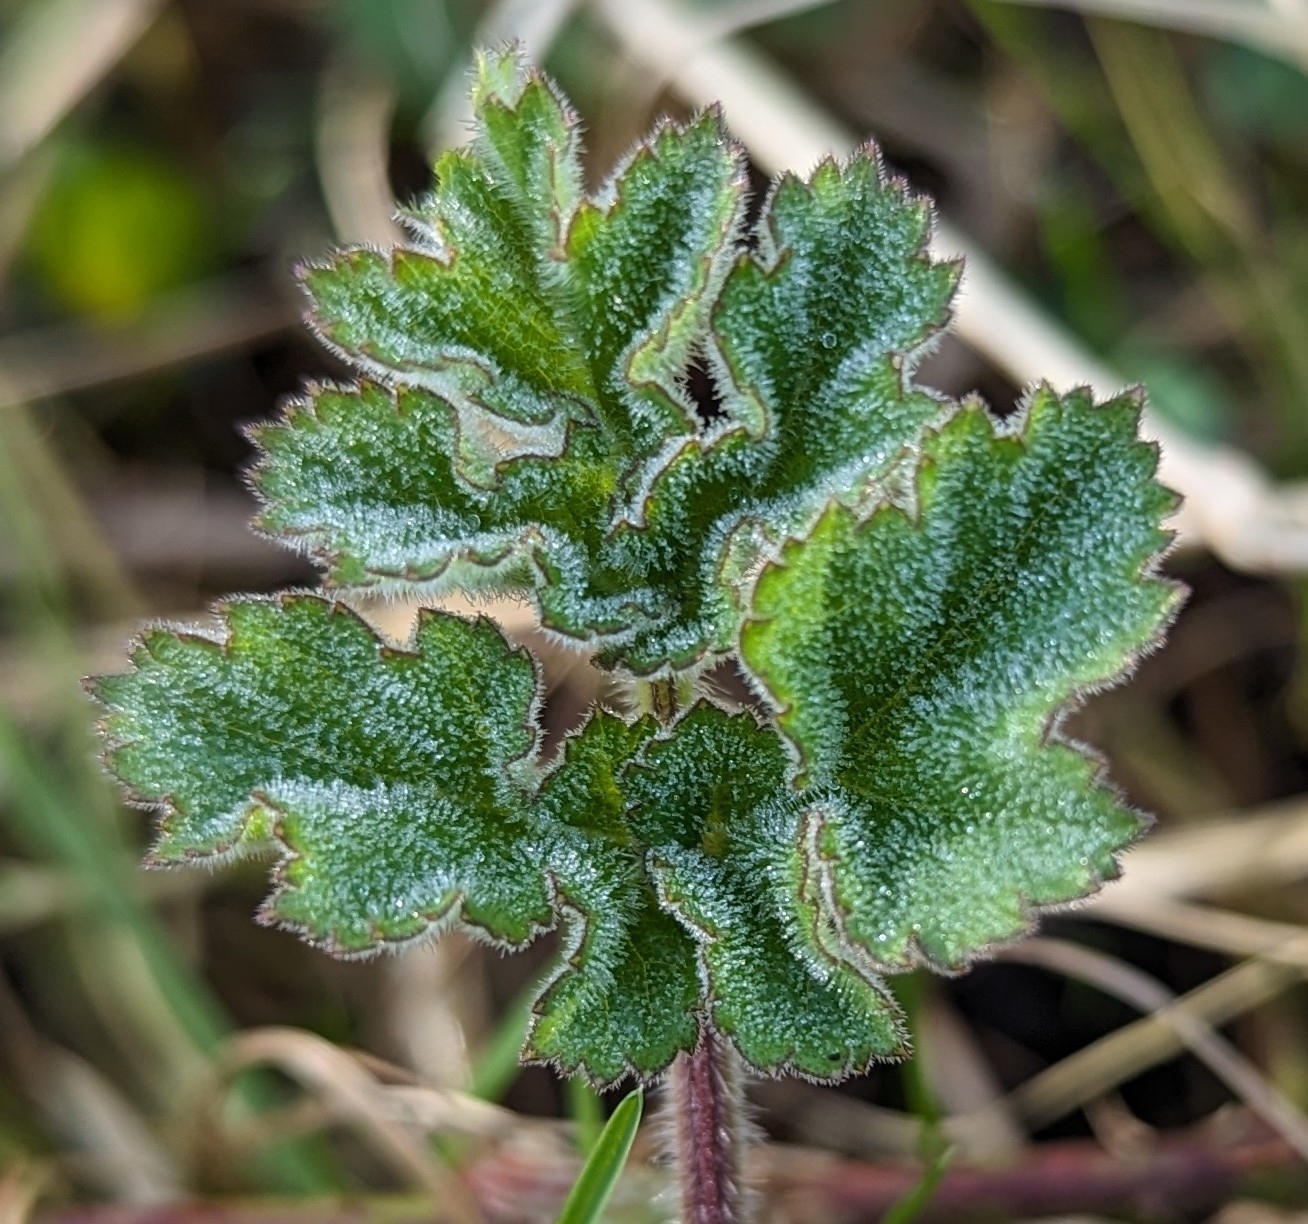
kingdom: Plantae
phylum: Tracheophyta
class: Magnoliopsida
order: Apiales
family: Apiaceae
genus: Heracleum
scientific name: Heracleum sphondylium
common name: Hogweed
